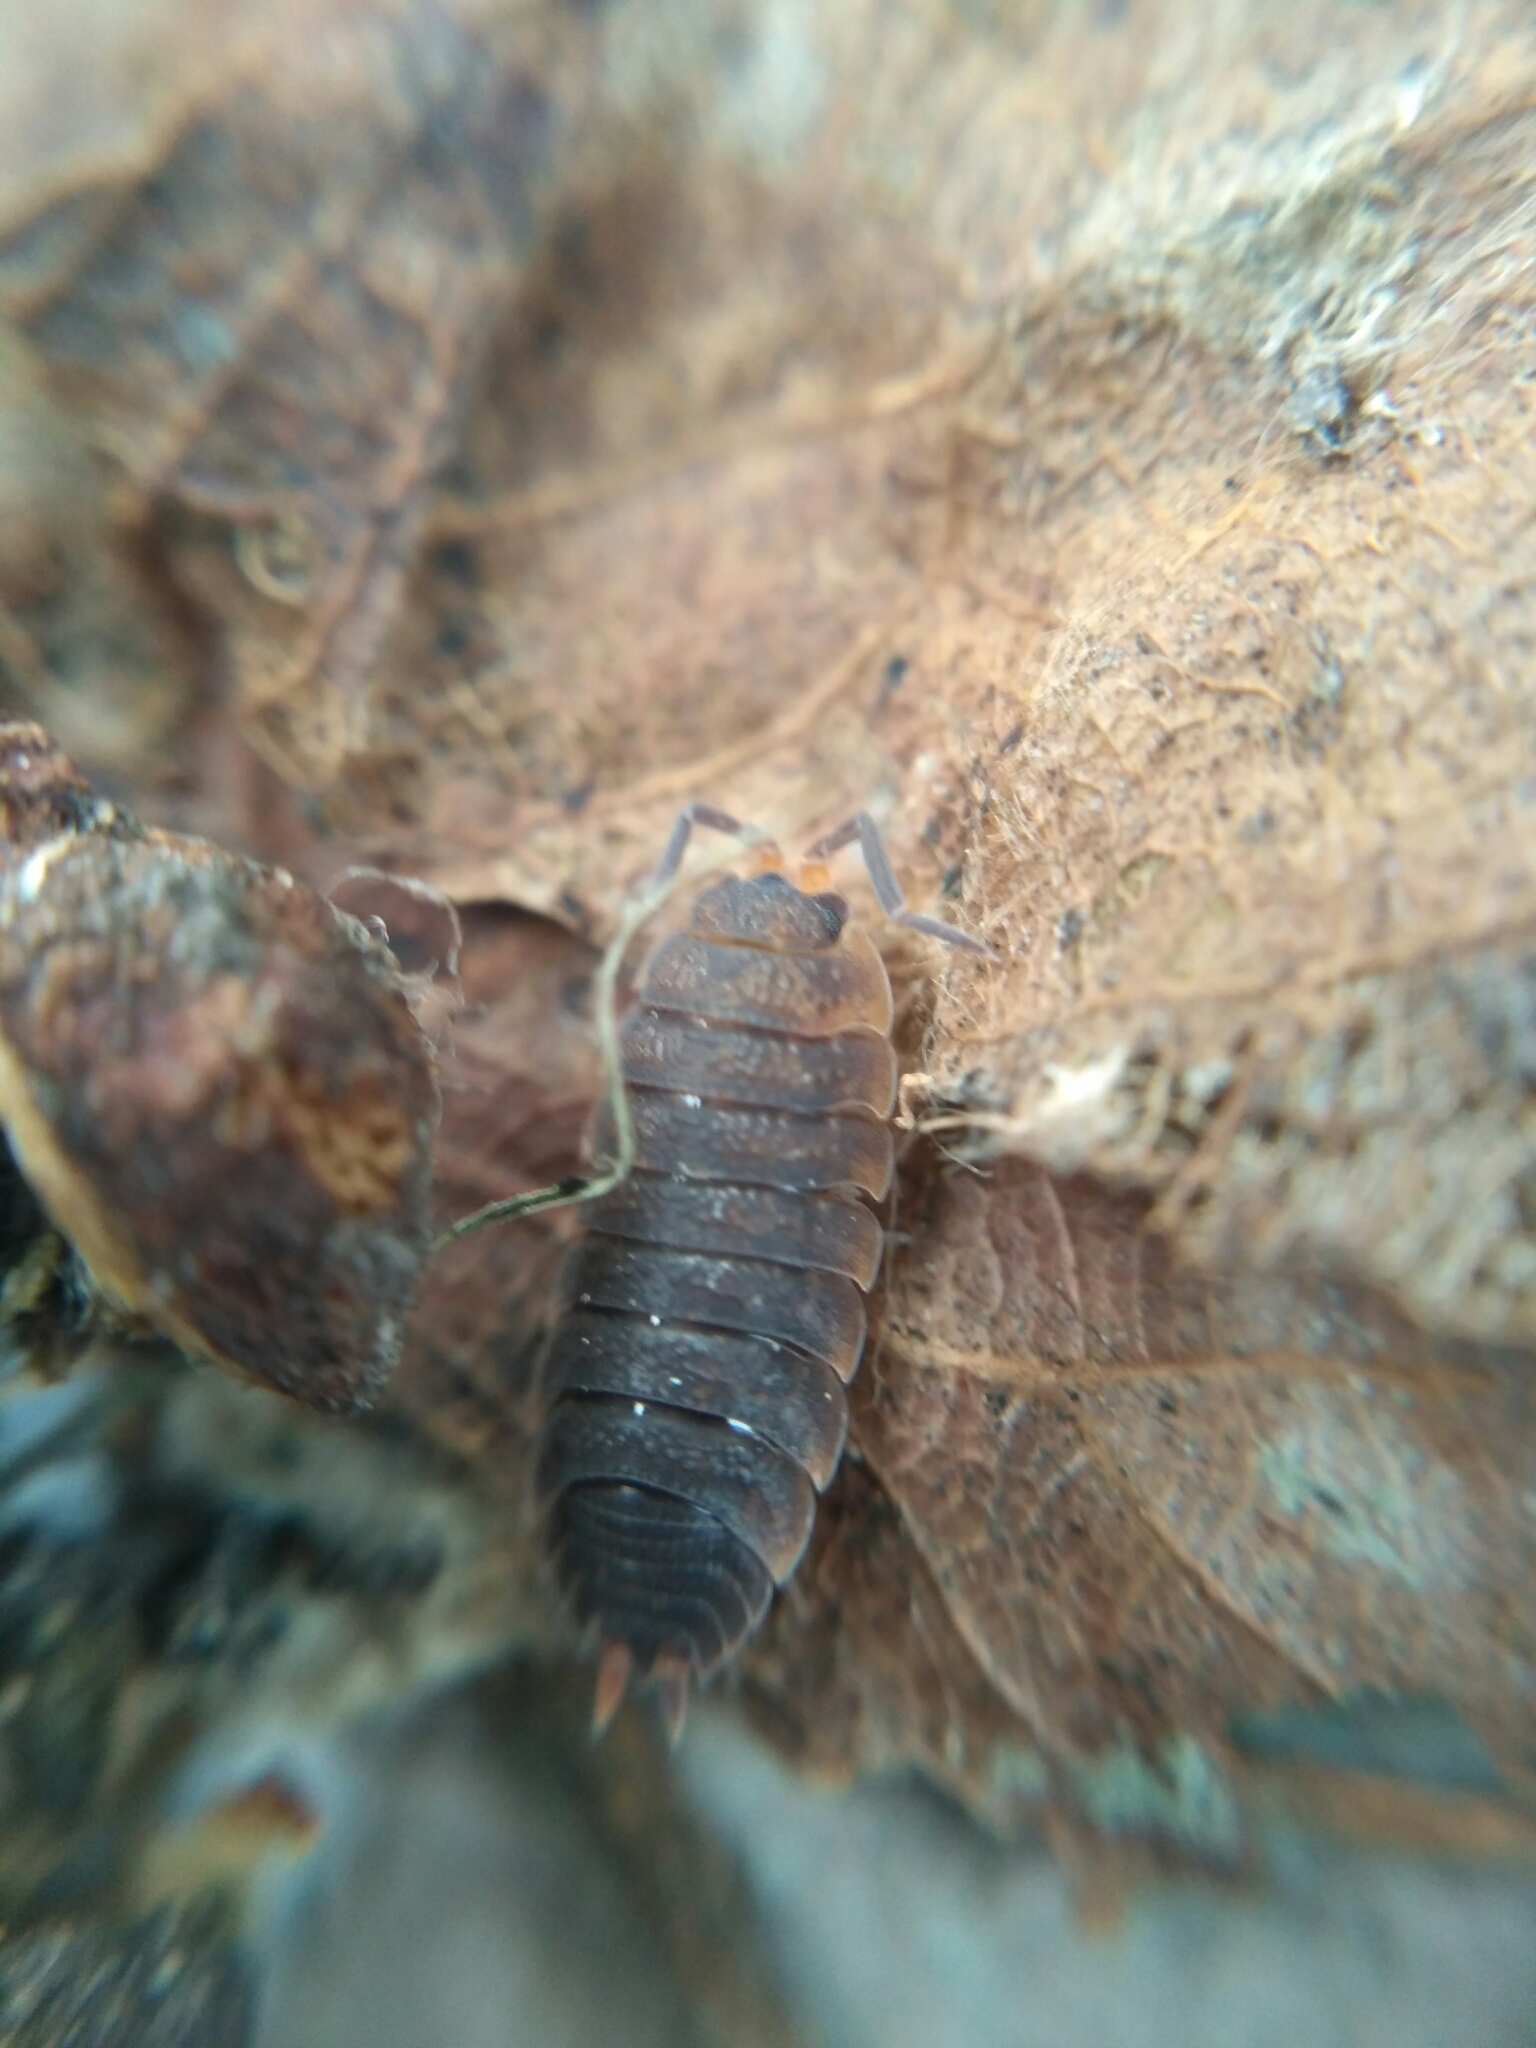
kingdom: Animalia
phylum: Arthropoda
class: Malacostraca
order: Isopoda
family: Porcellionidae
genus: Porcellio
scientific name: Porcellio scaber
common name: Common rough woodlouse
